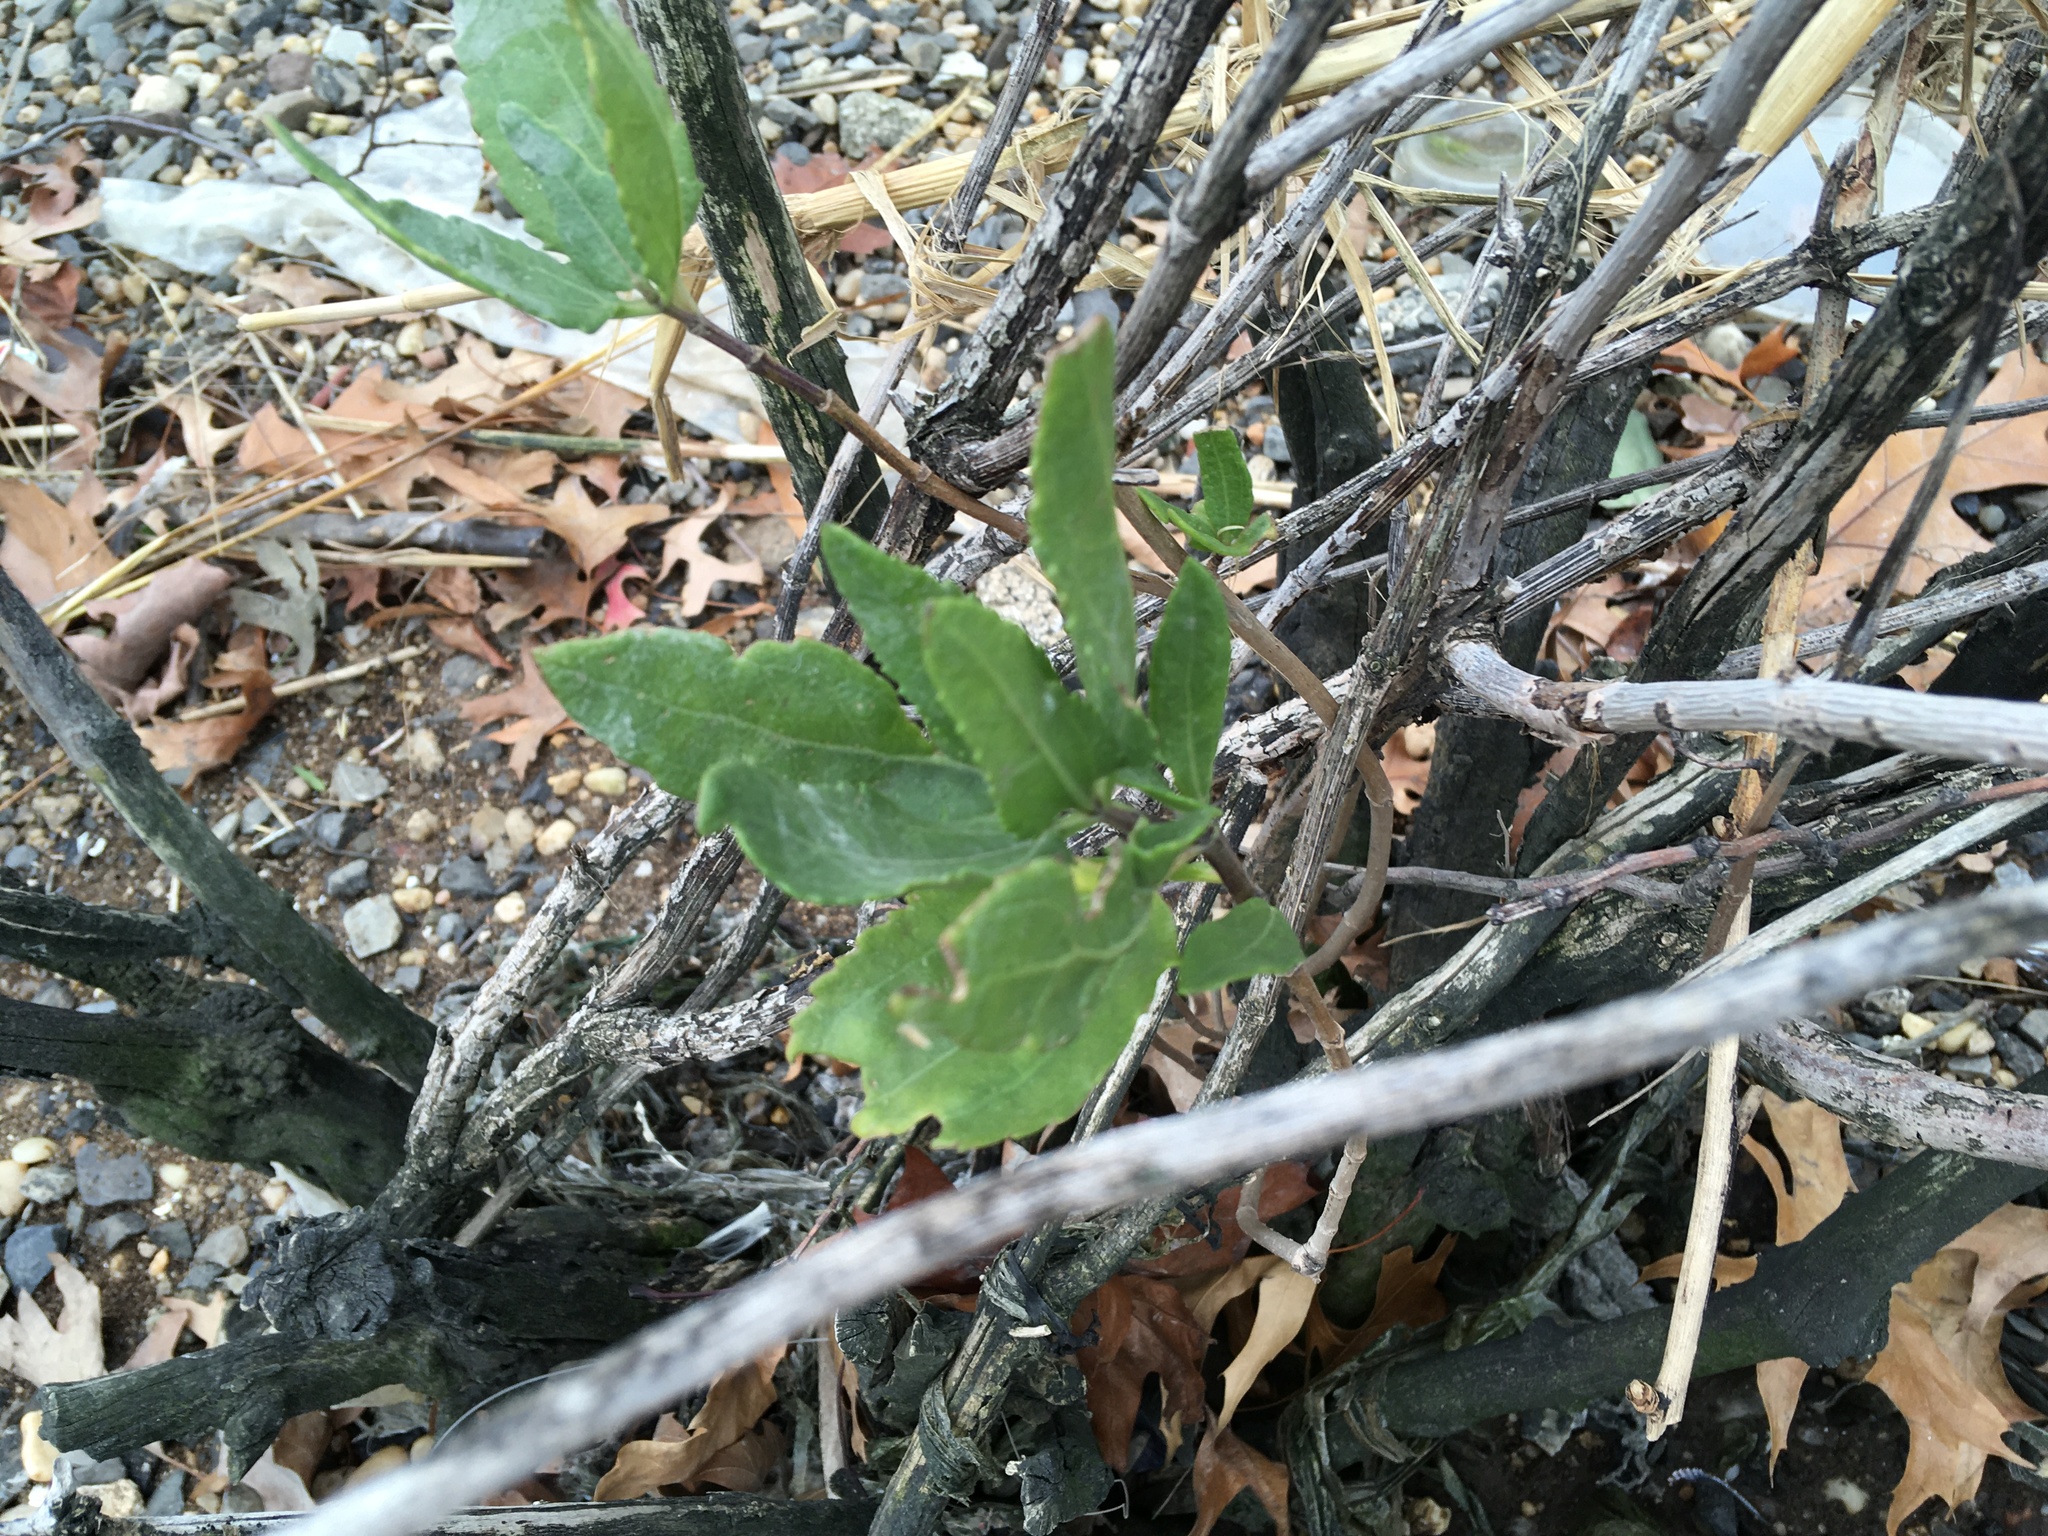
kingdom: Plantae
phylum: Tracheophyta
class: Magnoliopsida
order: Asterales
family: Asteraceae
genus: Iva
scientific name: Iva frutescens
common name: Big-leaved marsh-elder
